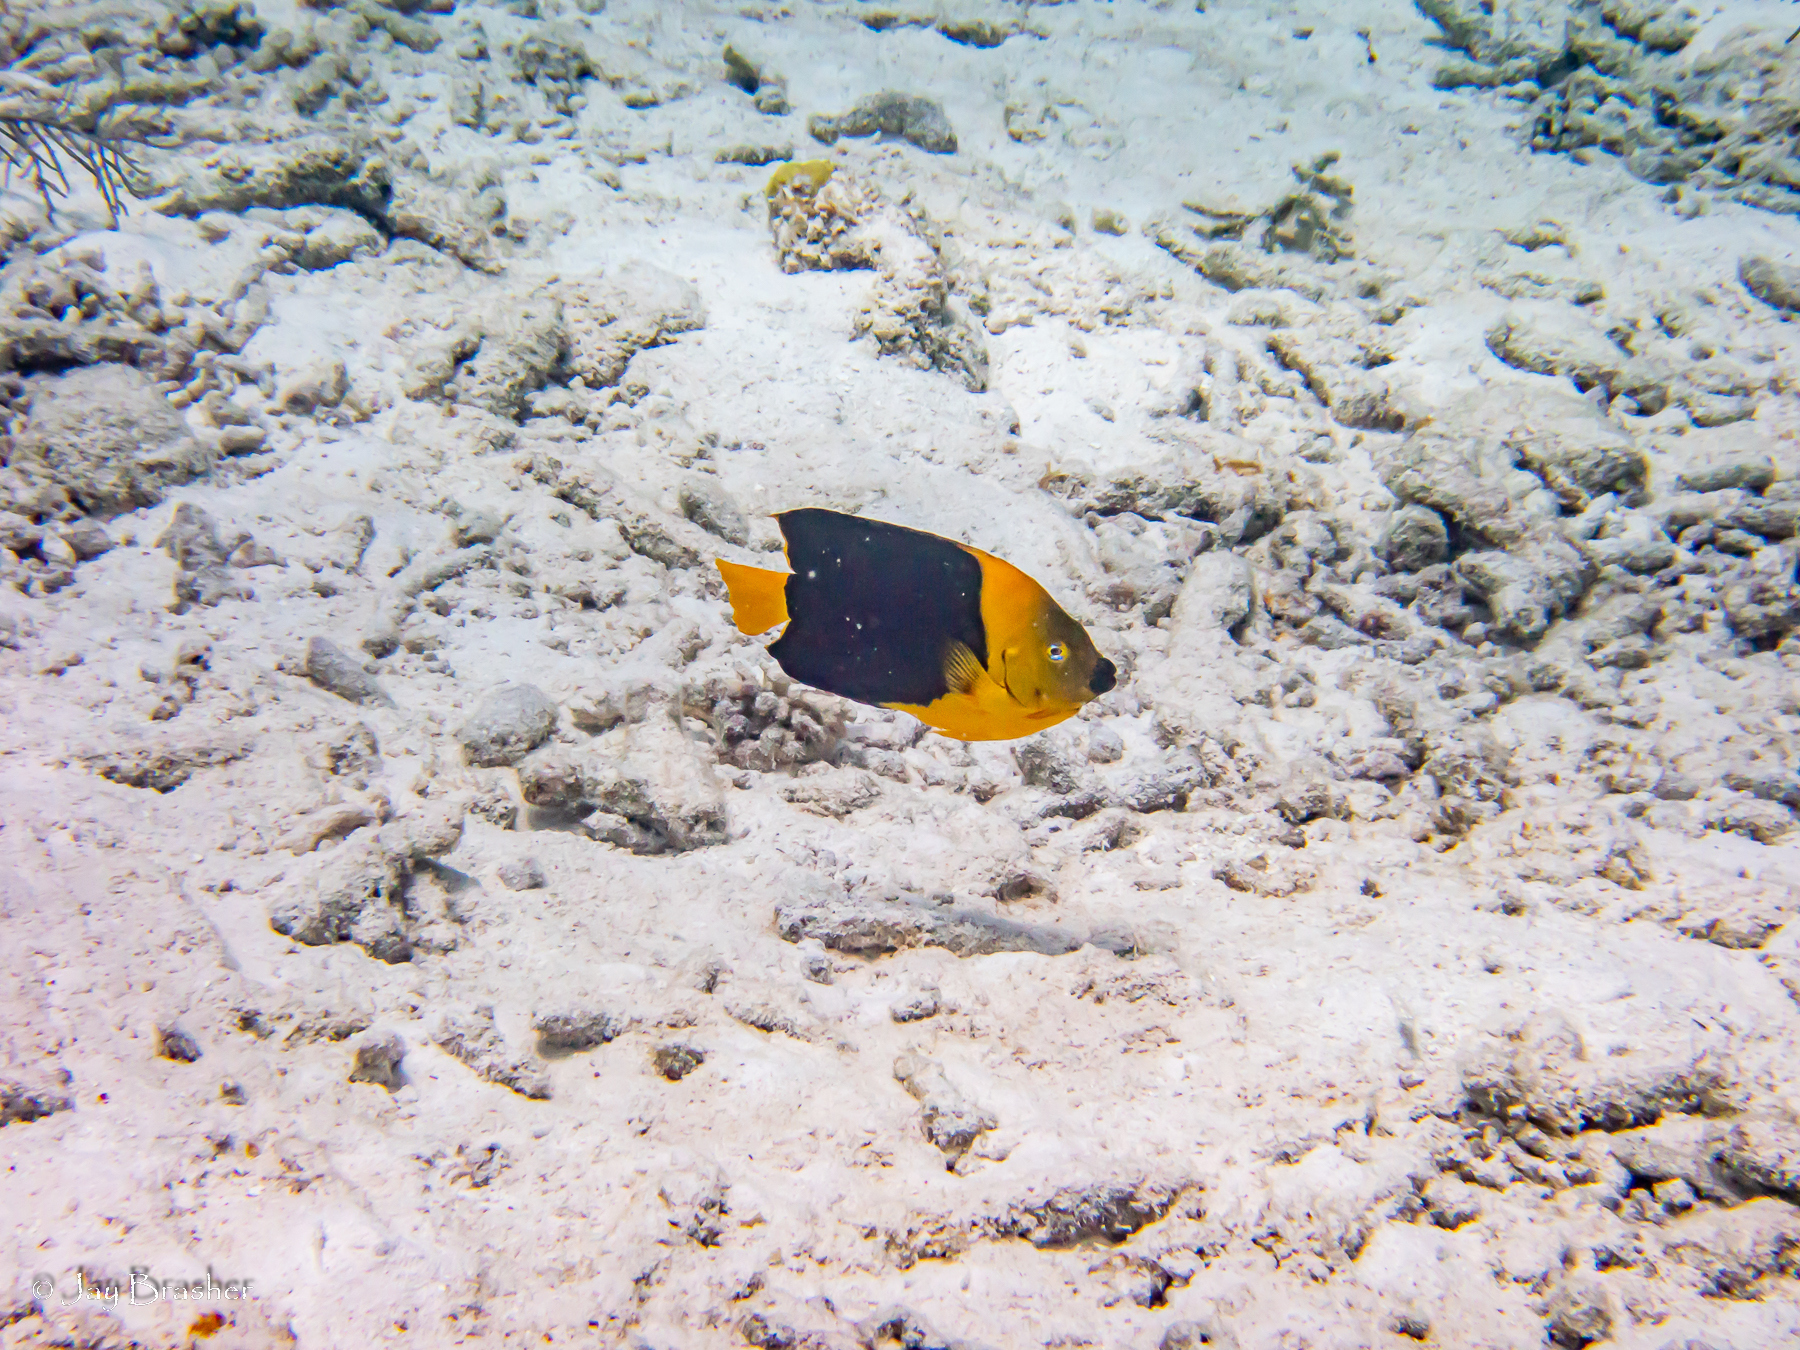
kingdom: Animalia
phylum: Chordata
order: Perciformes
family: Pomacanthidae
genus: Holacanthus
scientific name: Holacanthus tricolor
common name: Rock beauty
